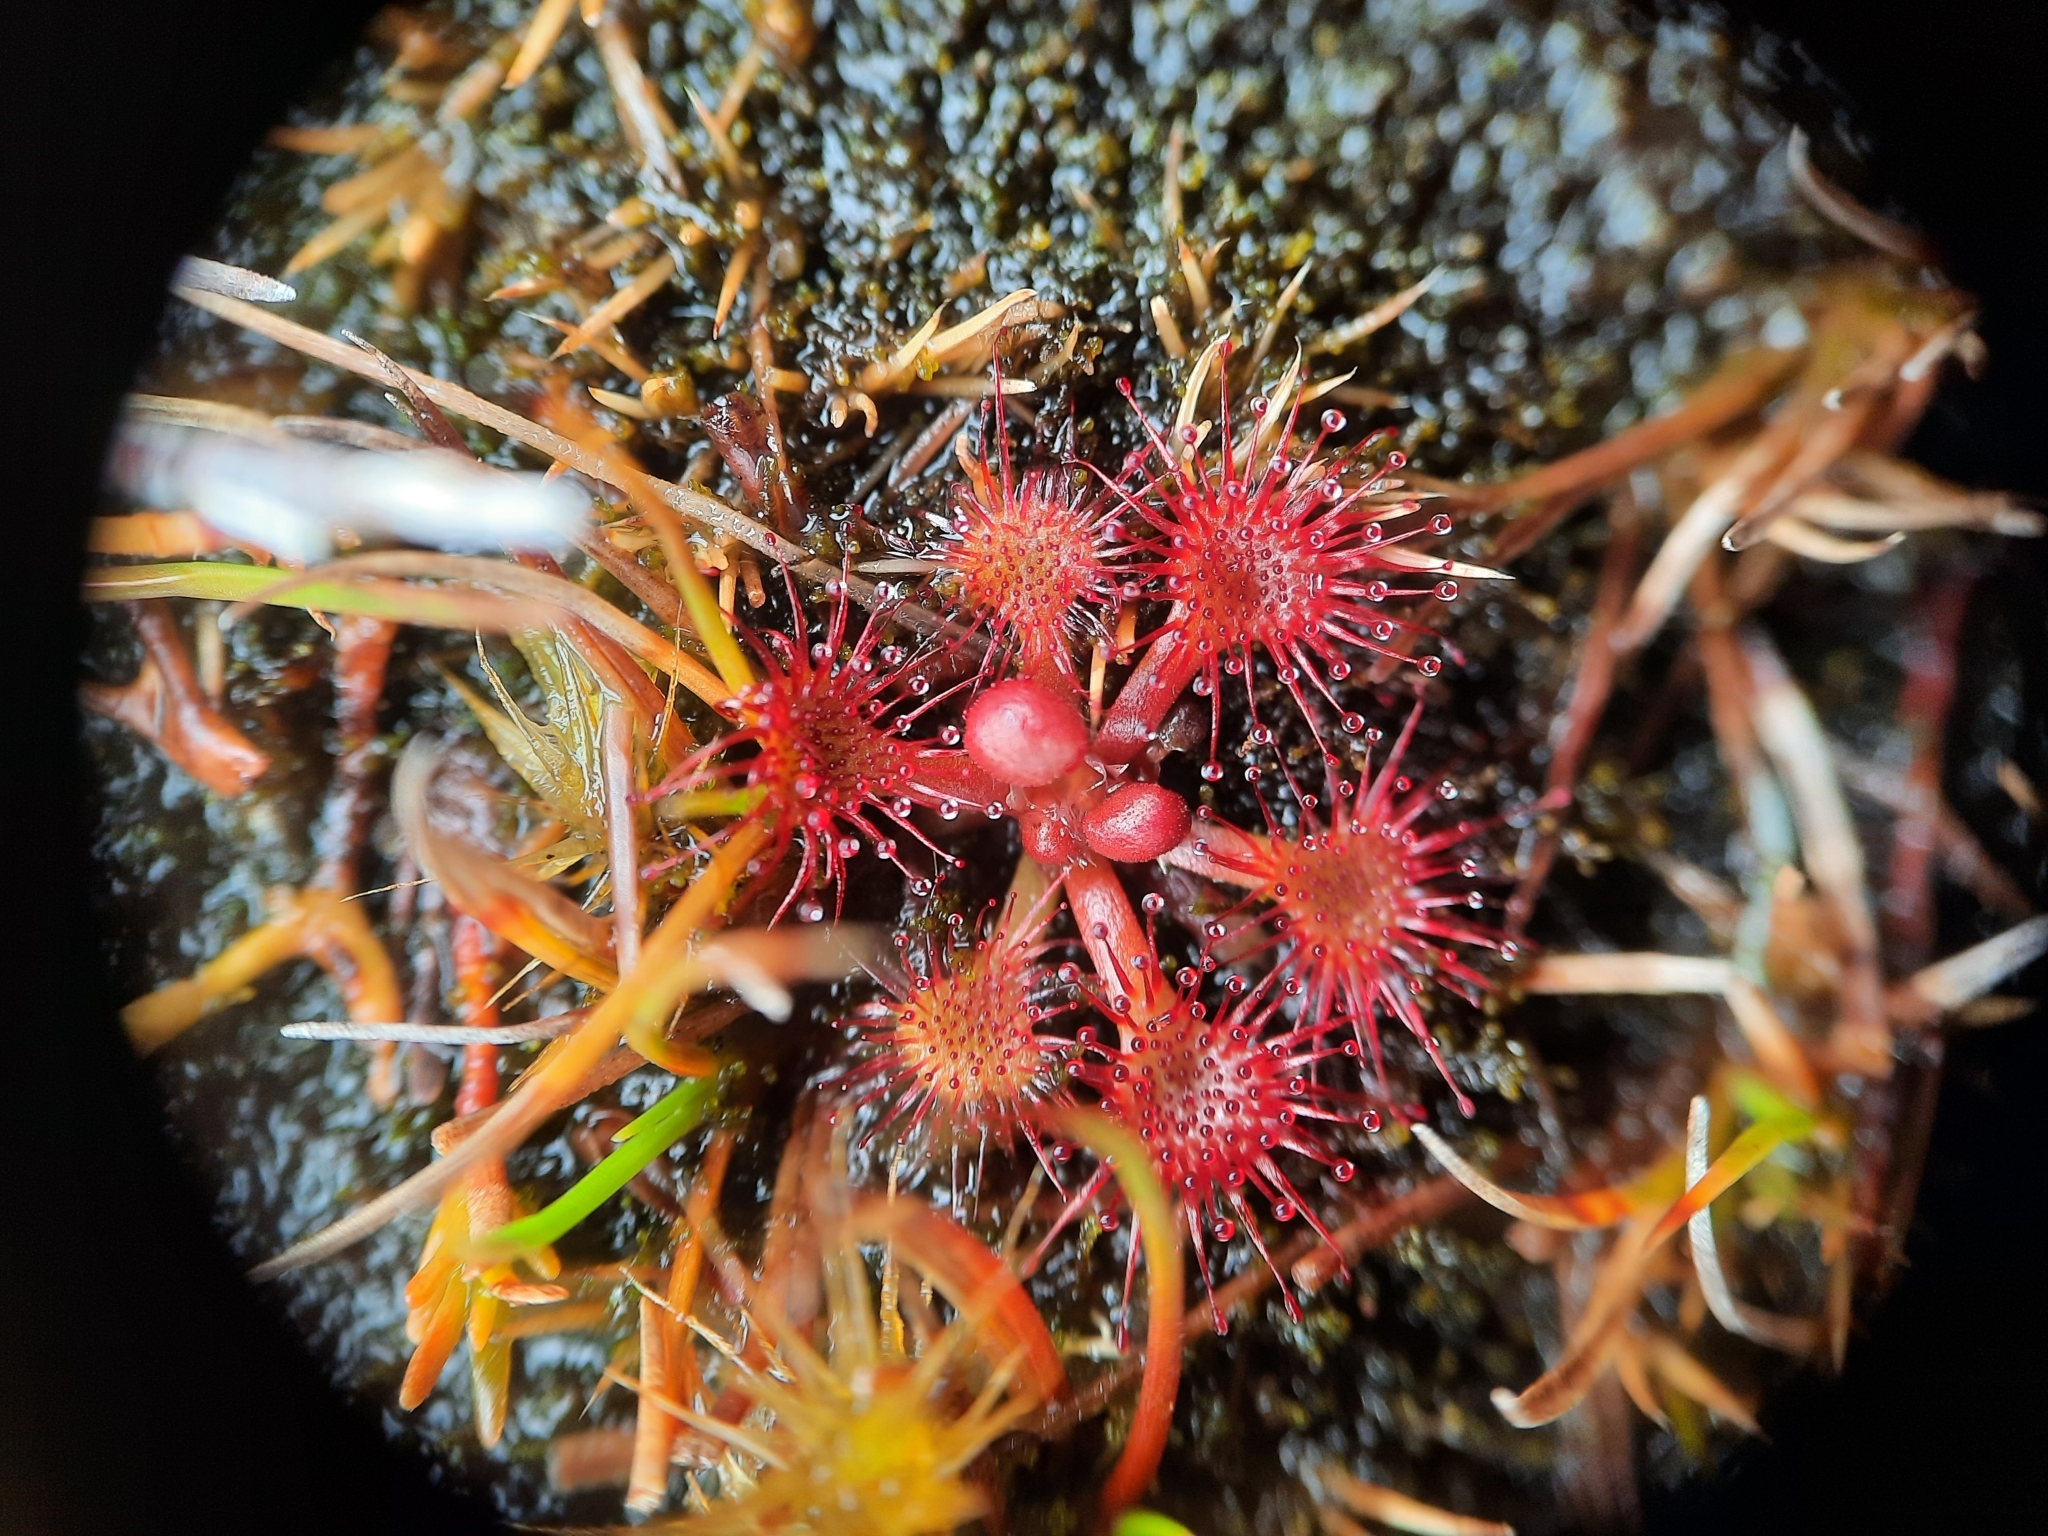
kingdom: Plantae
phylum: Tracheophyta
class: Magnoliopsida
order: Caryophyllales
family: Droseraceae
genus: Drosera
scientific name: Drosera spatulata
